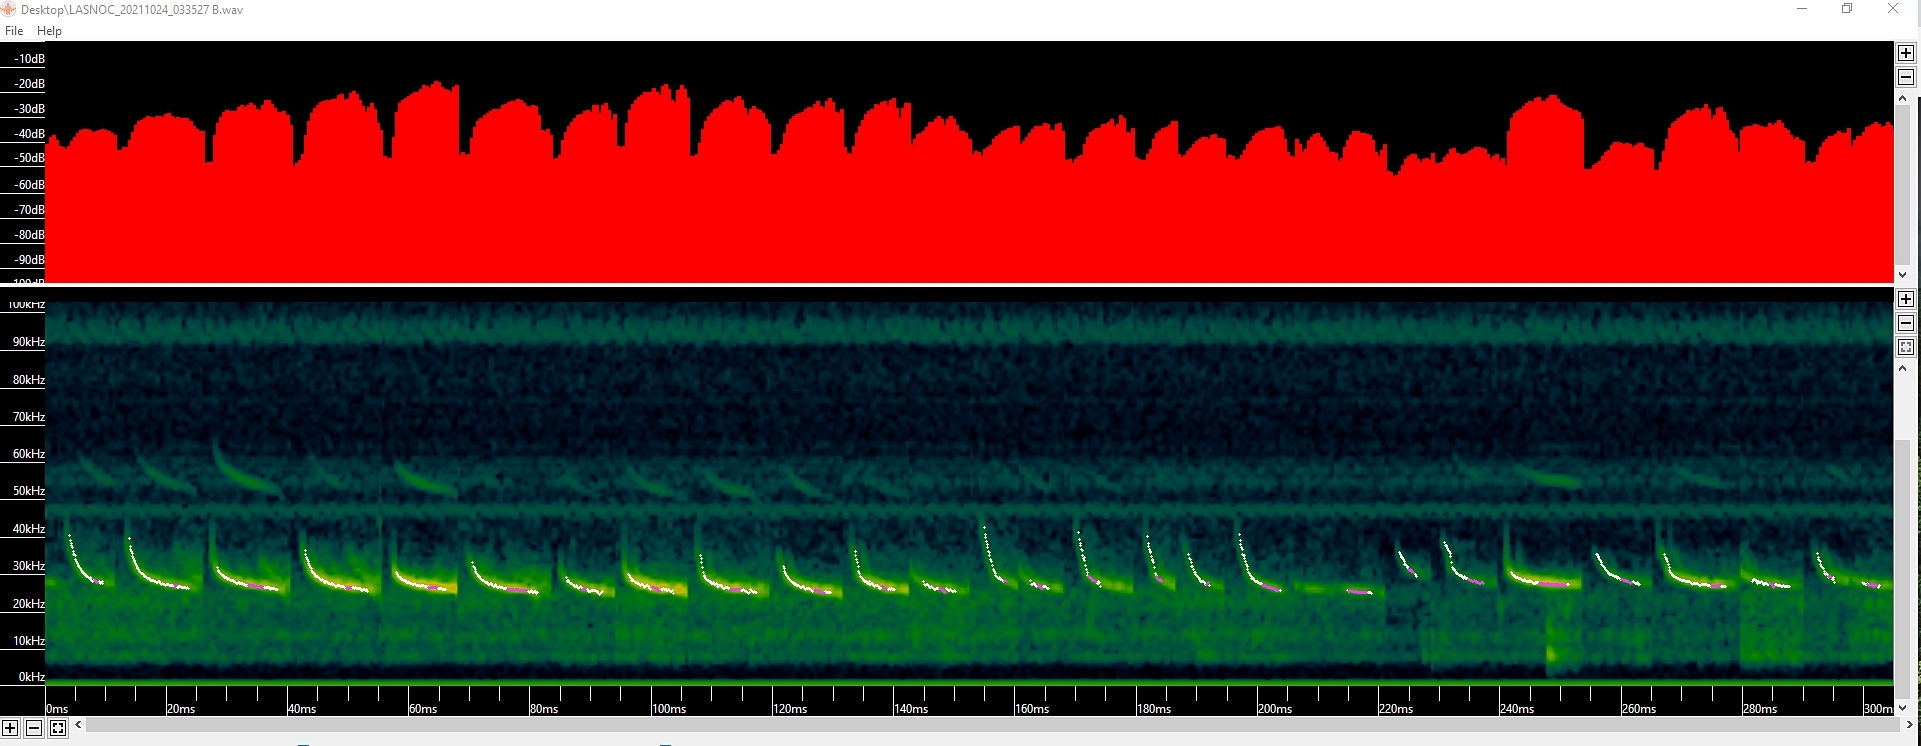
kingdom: Animalia
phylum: Chordata
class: Mammalia
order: Chiroptera
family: Vespertilionidae
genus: Lasionycteris
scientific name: Lasionycteris noctivagans
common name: Silver-haired bat
